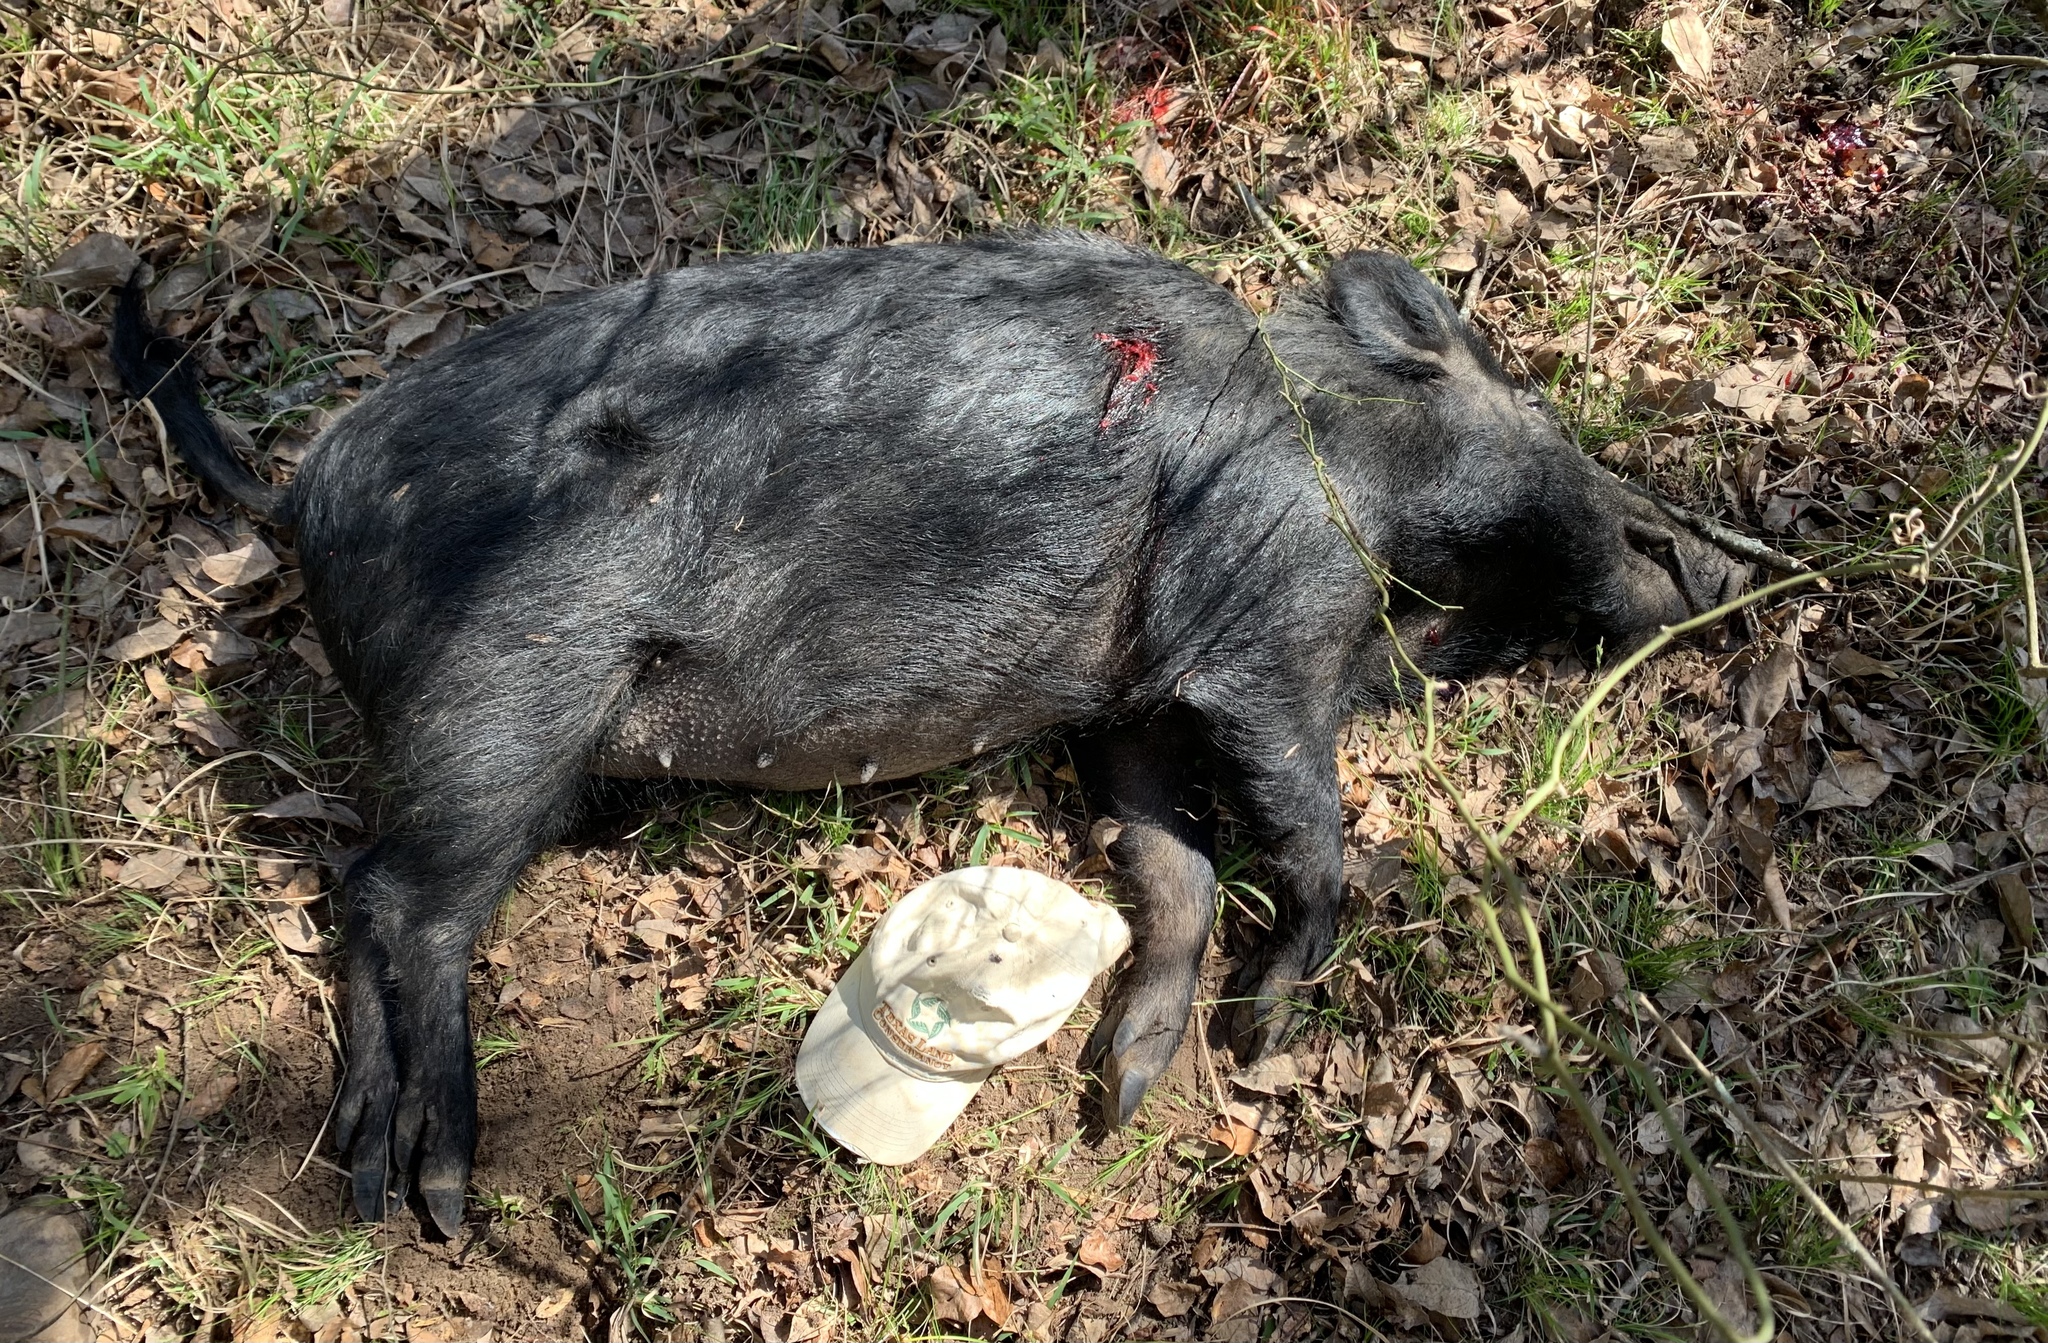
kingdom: Animalia
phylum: Chordata
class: Mammalia
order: Artiodactyla
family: Suidae
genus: Sus
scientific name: Sus scrofa
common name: Wild boar
